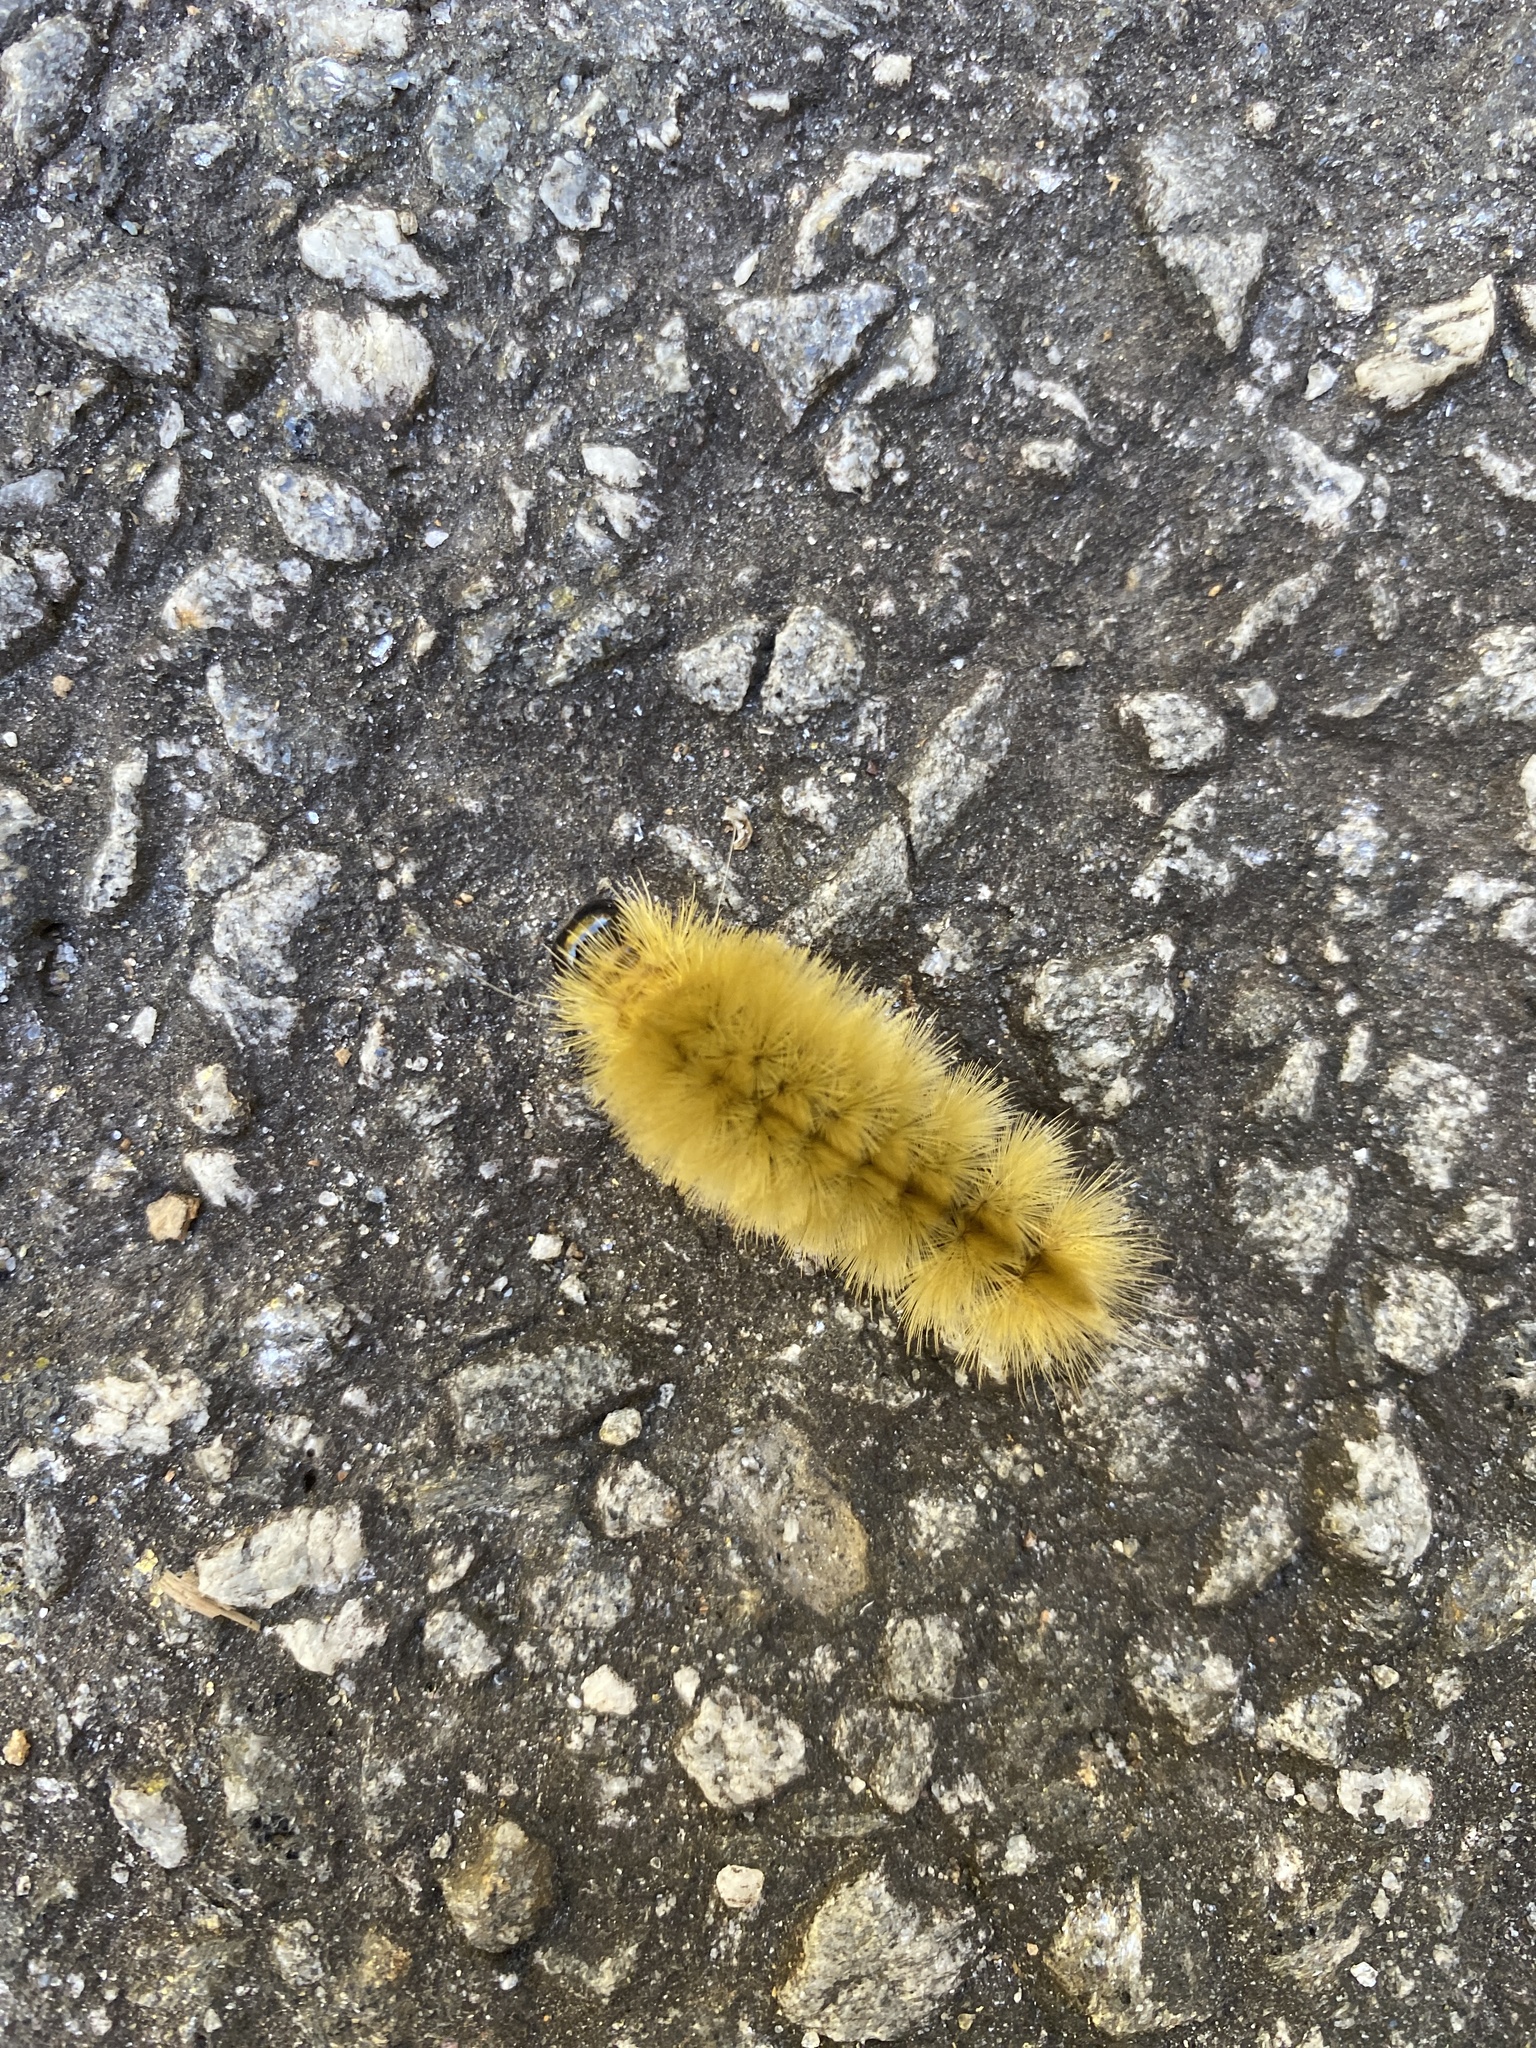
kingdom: Animalia
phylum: Arthropoda
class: Insecta
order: Lepidoptera
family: Erebidae
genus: Halysidota
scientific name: Halysidota tessellaris
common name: Banded tussock moth
